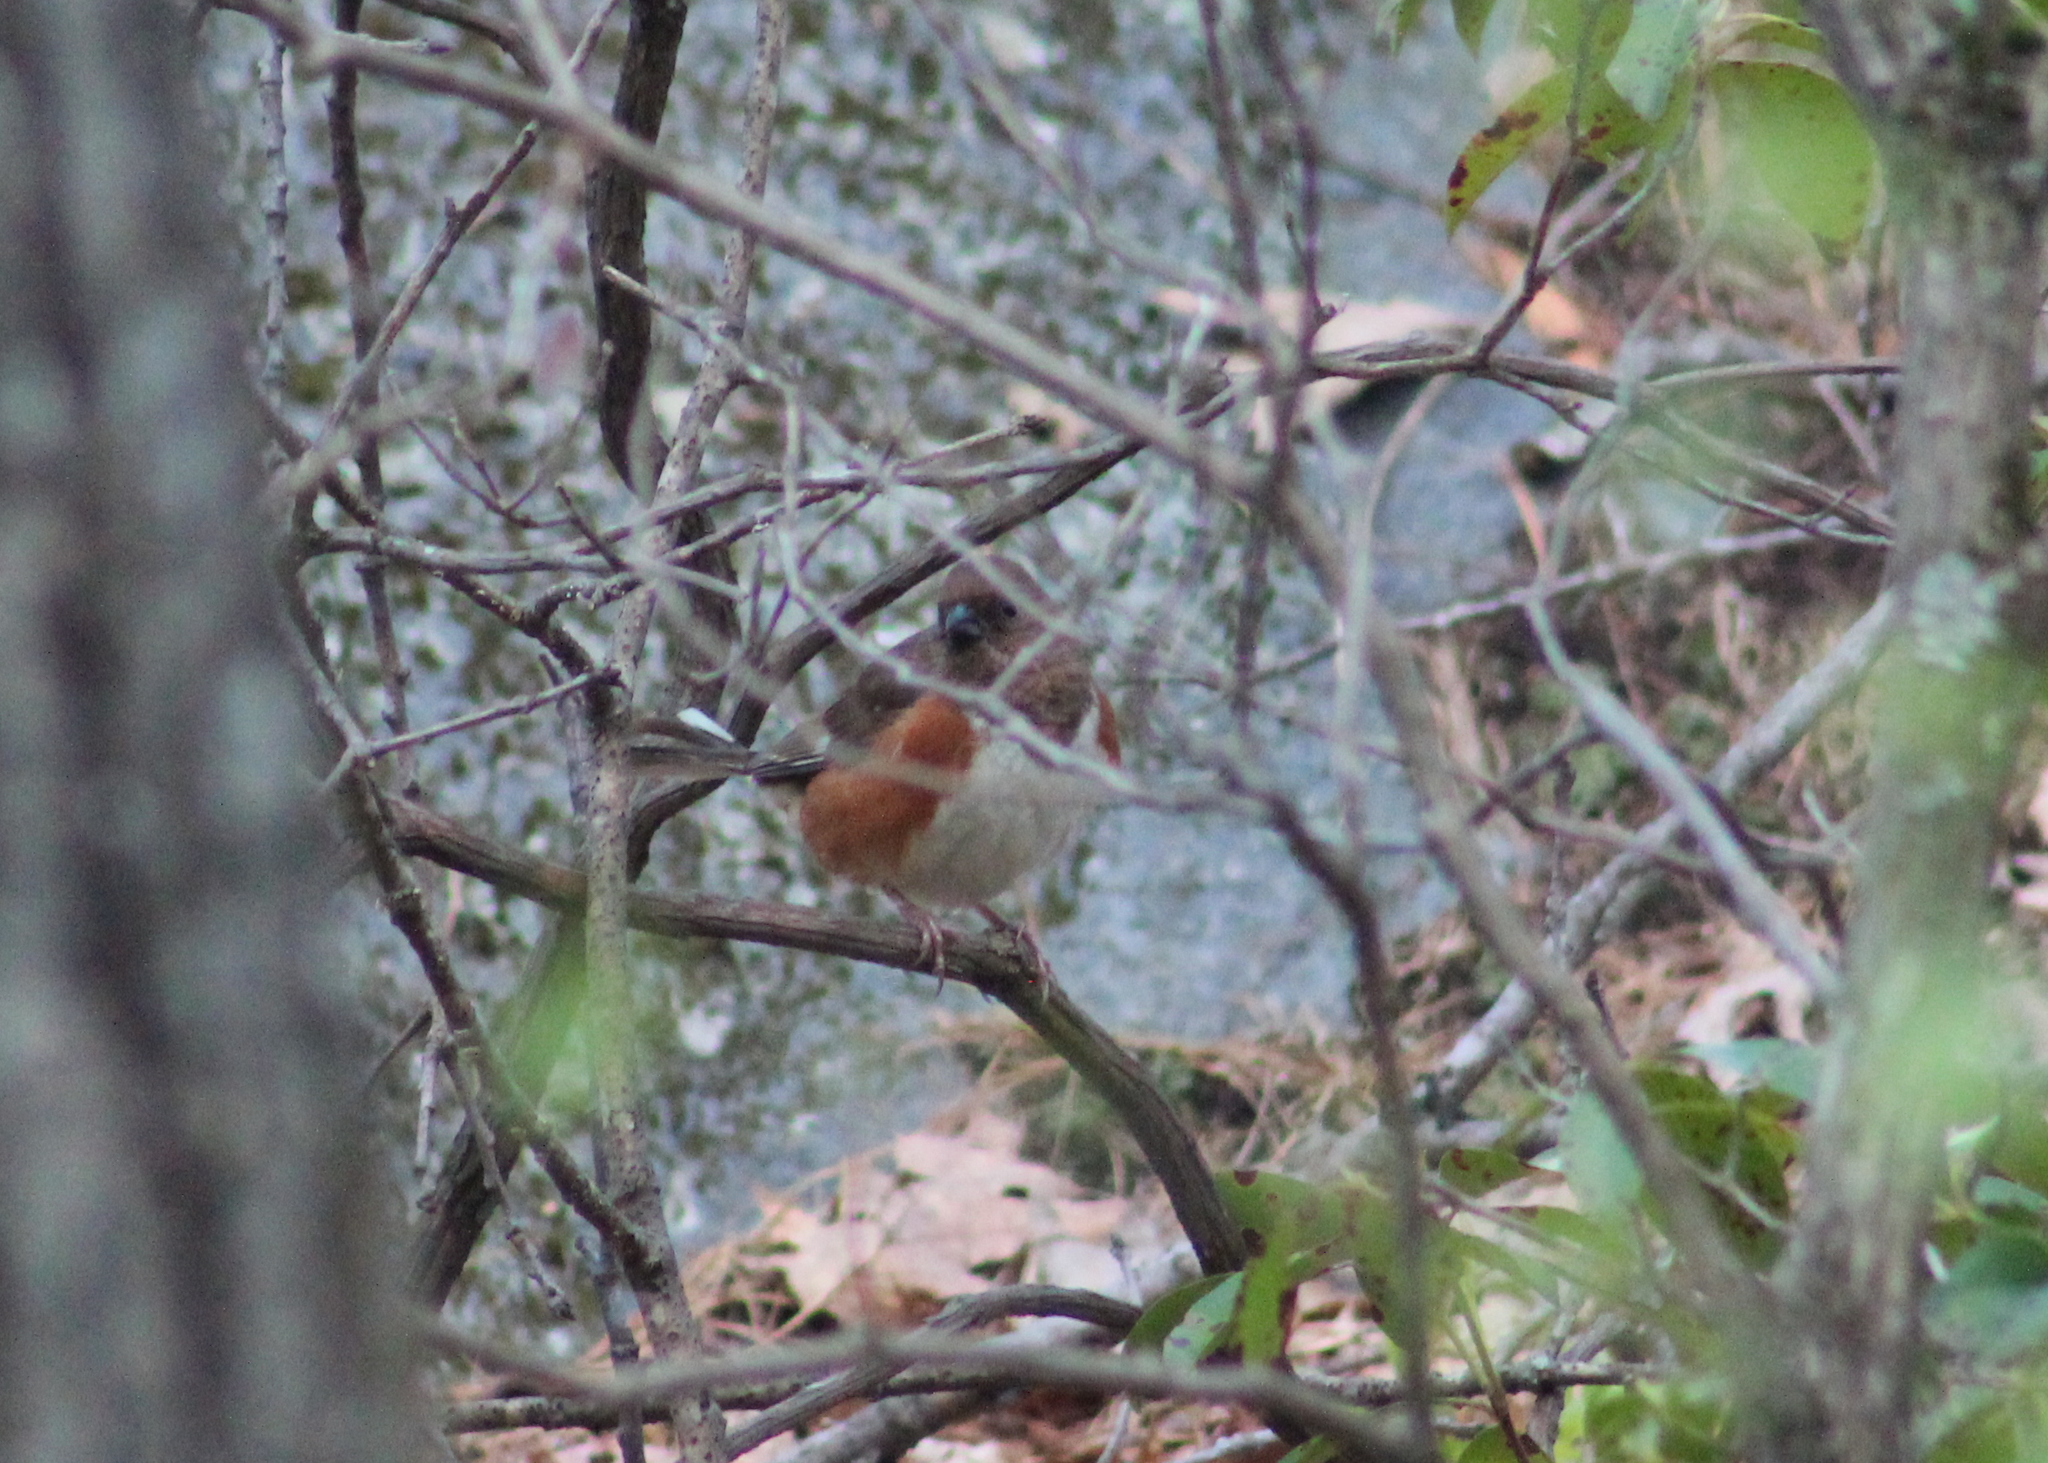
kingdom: Animalia
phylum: Chordata
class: Aves
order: Passeriformes
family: Passerellidae
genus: Pipilo
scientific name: Pipilo erythrophthalmus
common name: Eastern towhee
